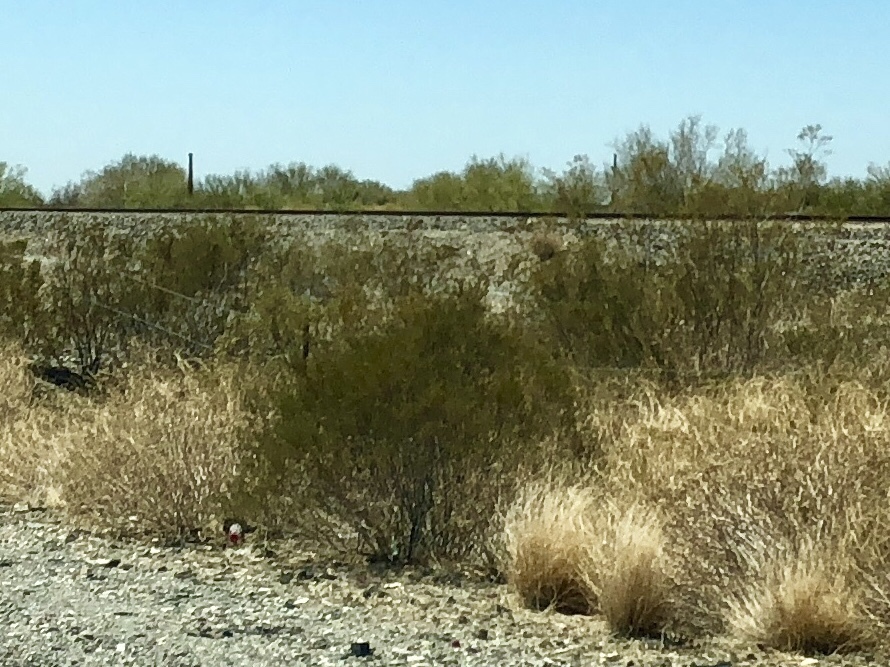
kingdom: Plantae
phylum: Tracheophyta
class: Magnoliopsida
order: Zygophyllales
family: Zygophyllaceae
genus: Larrea
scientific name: Larrea tridentata
